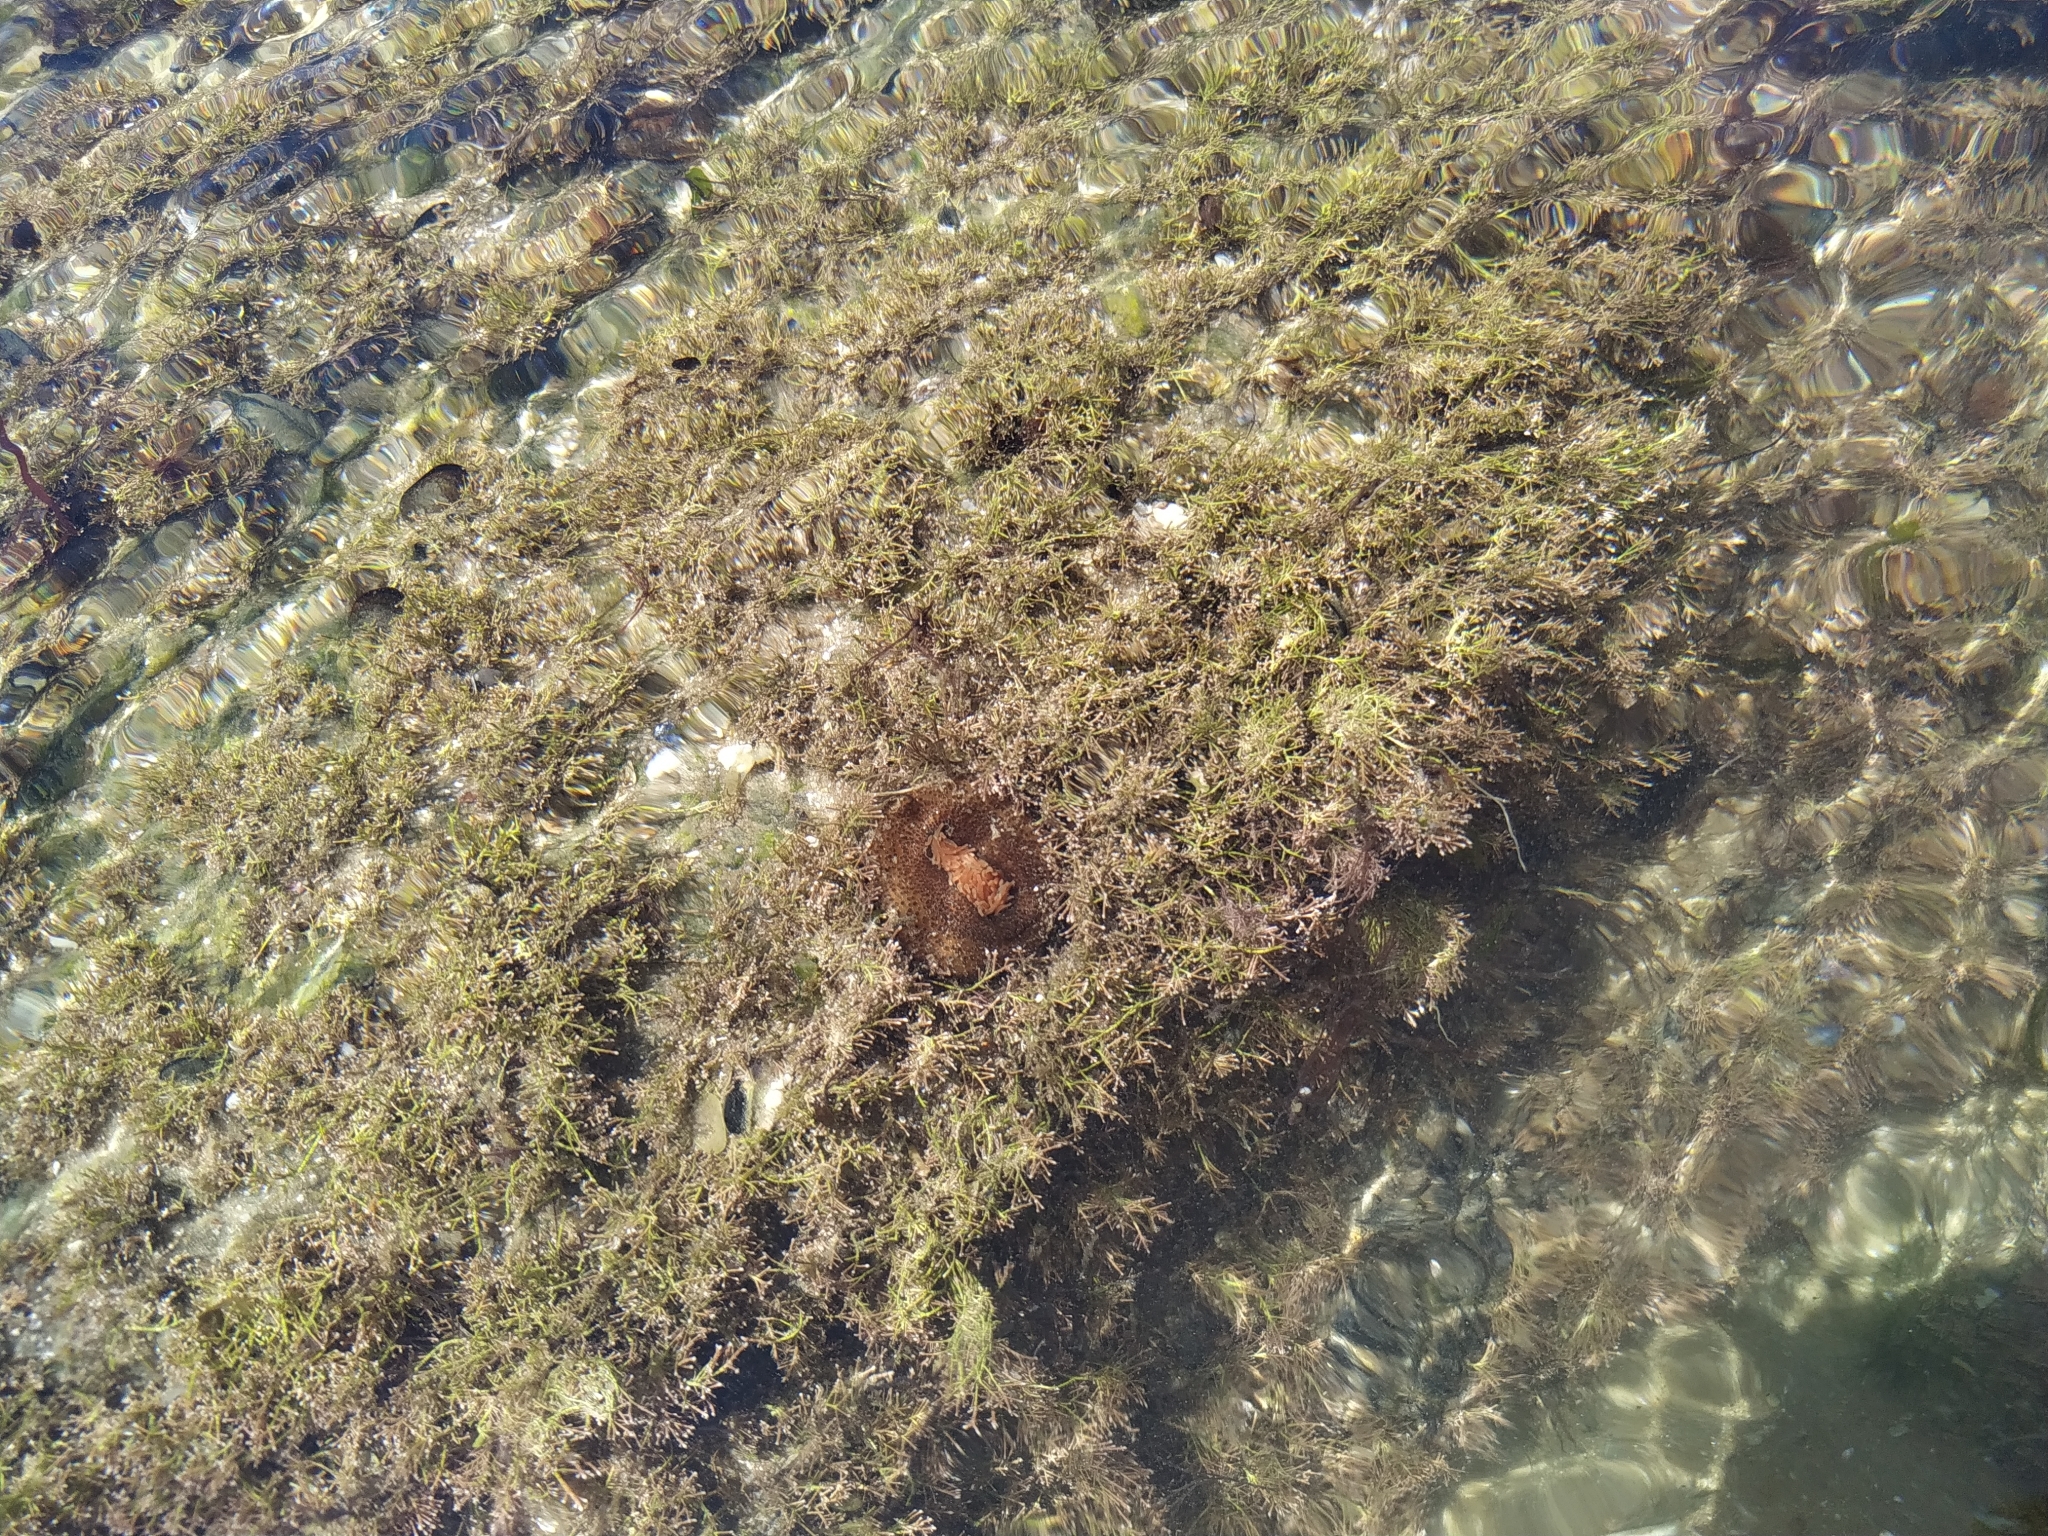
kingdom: Animalia
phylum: Cnidaria
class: Anthozoa
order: Actiniaria
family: Actiniidae
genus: Bunodosoma
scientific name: Bunodosoma cangicum
